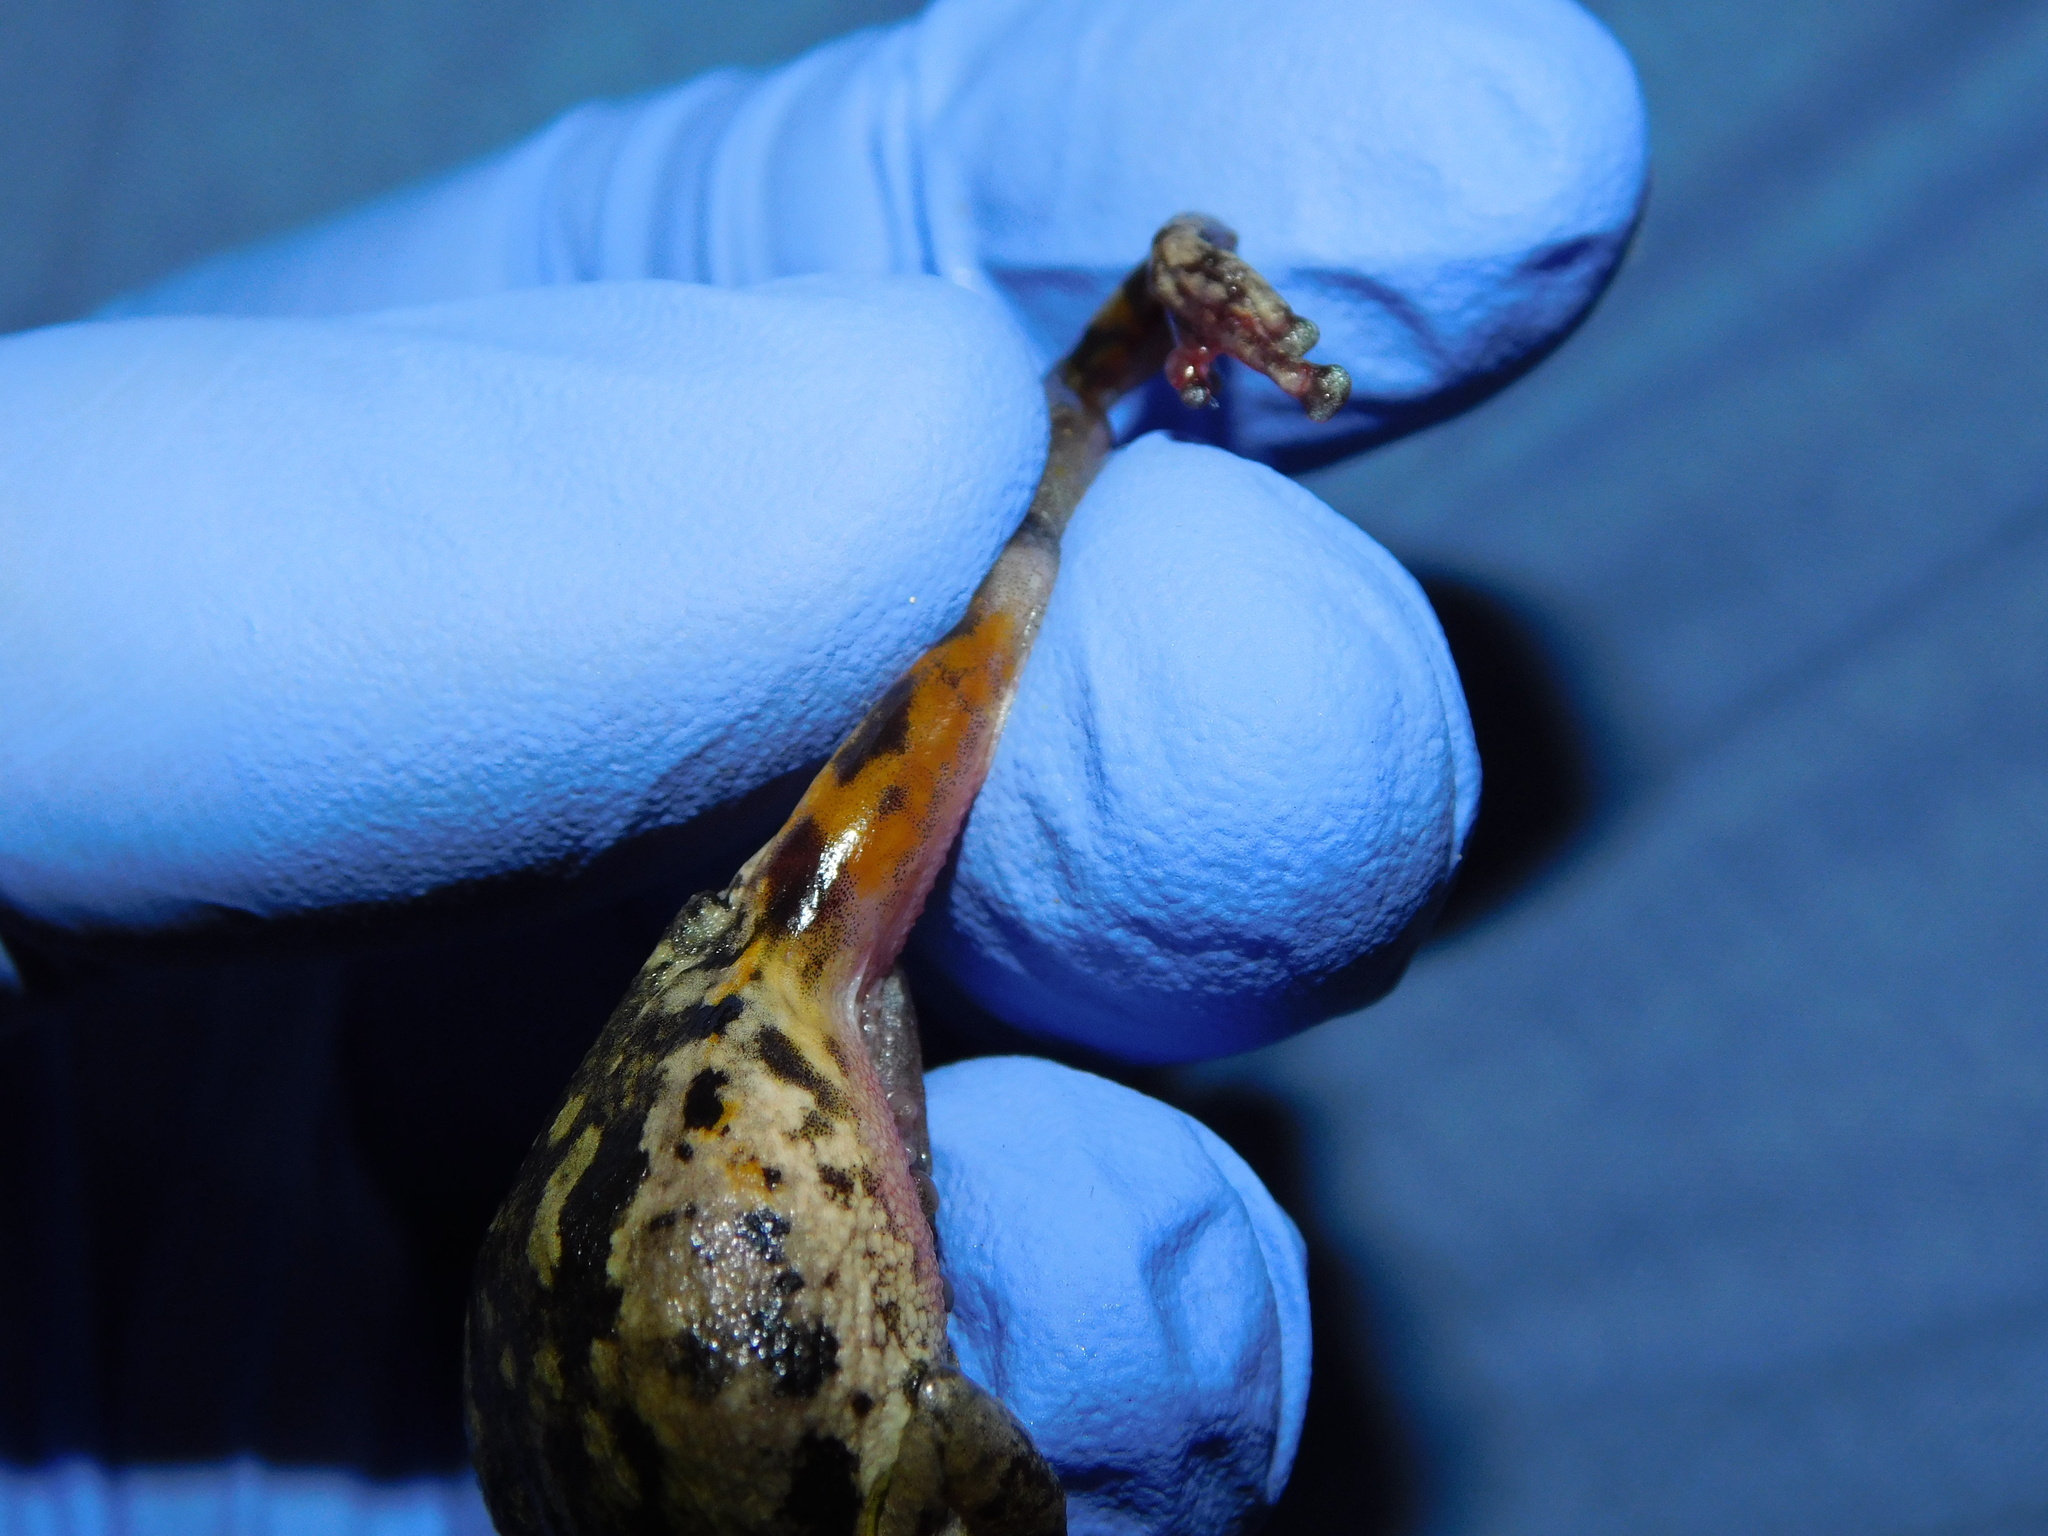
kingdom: Animalia
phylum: Chordata
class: Amphibia
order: Anura
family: Hylidae
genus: Scinax
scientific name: Scinax nasicus
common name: Lesser snouted treefrog
